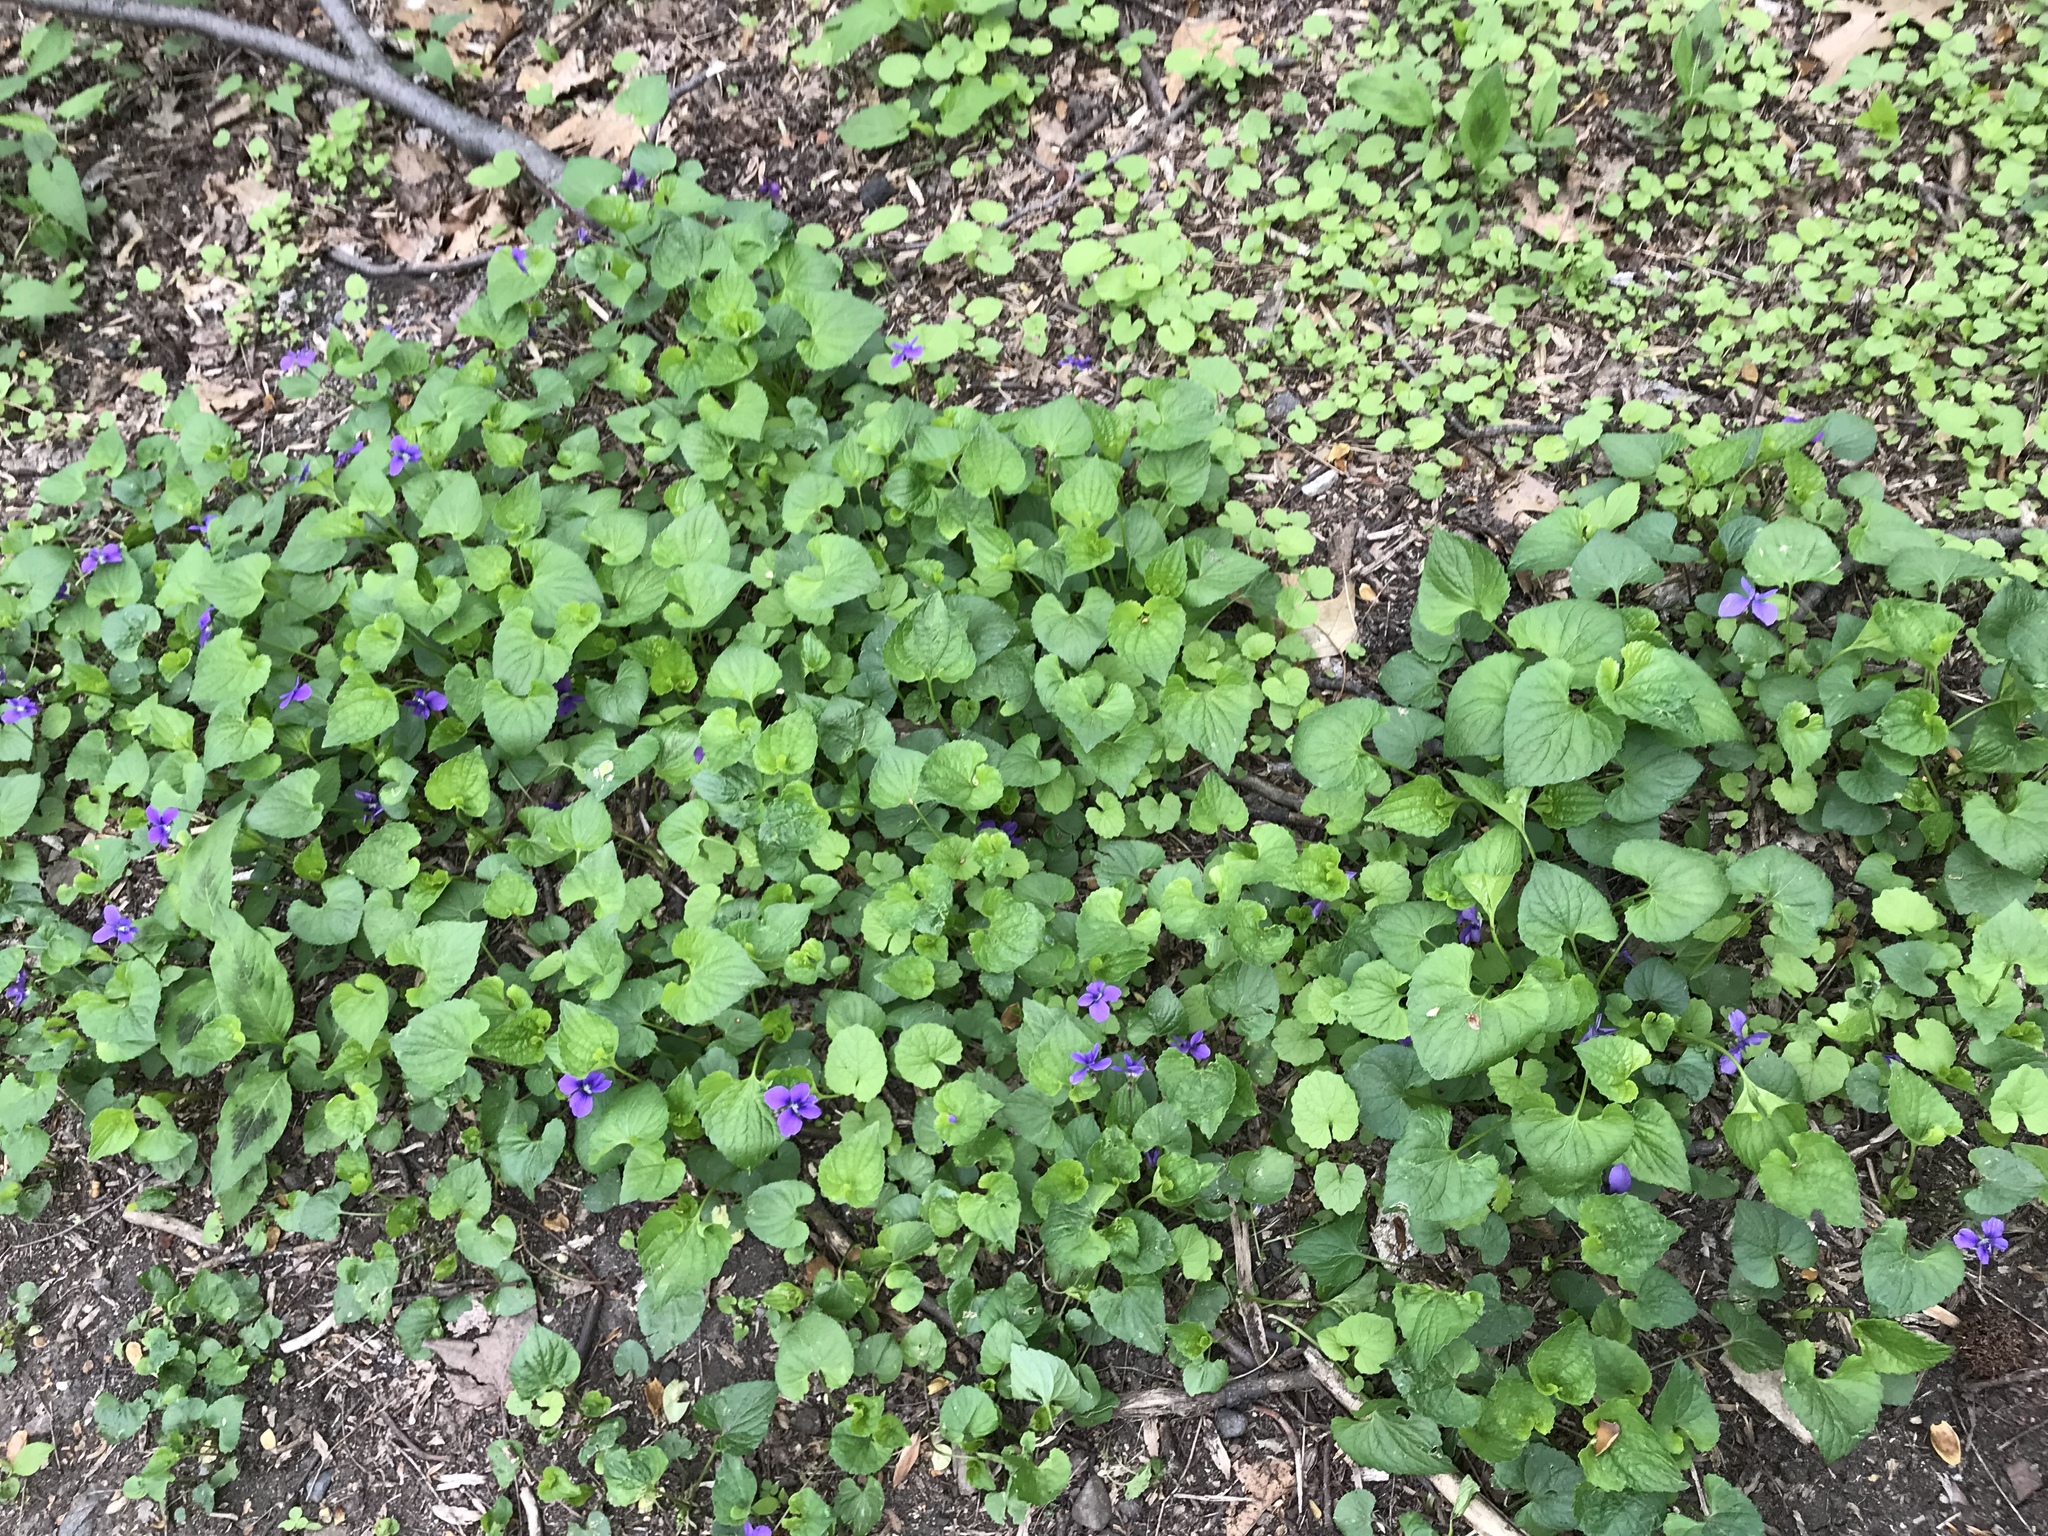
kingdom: Plantae
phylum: Tracheophyta
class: Magnoliopsida
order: Malpighiales
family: Violaceae
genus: Viola
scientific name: Viola sororia
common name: Dooryard violet
